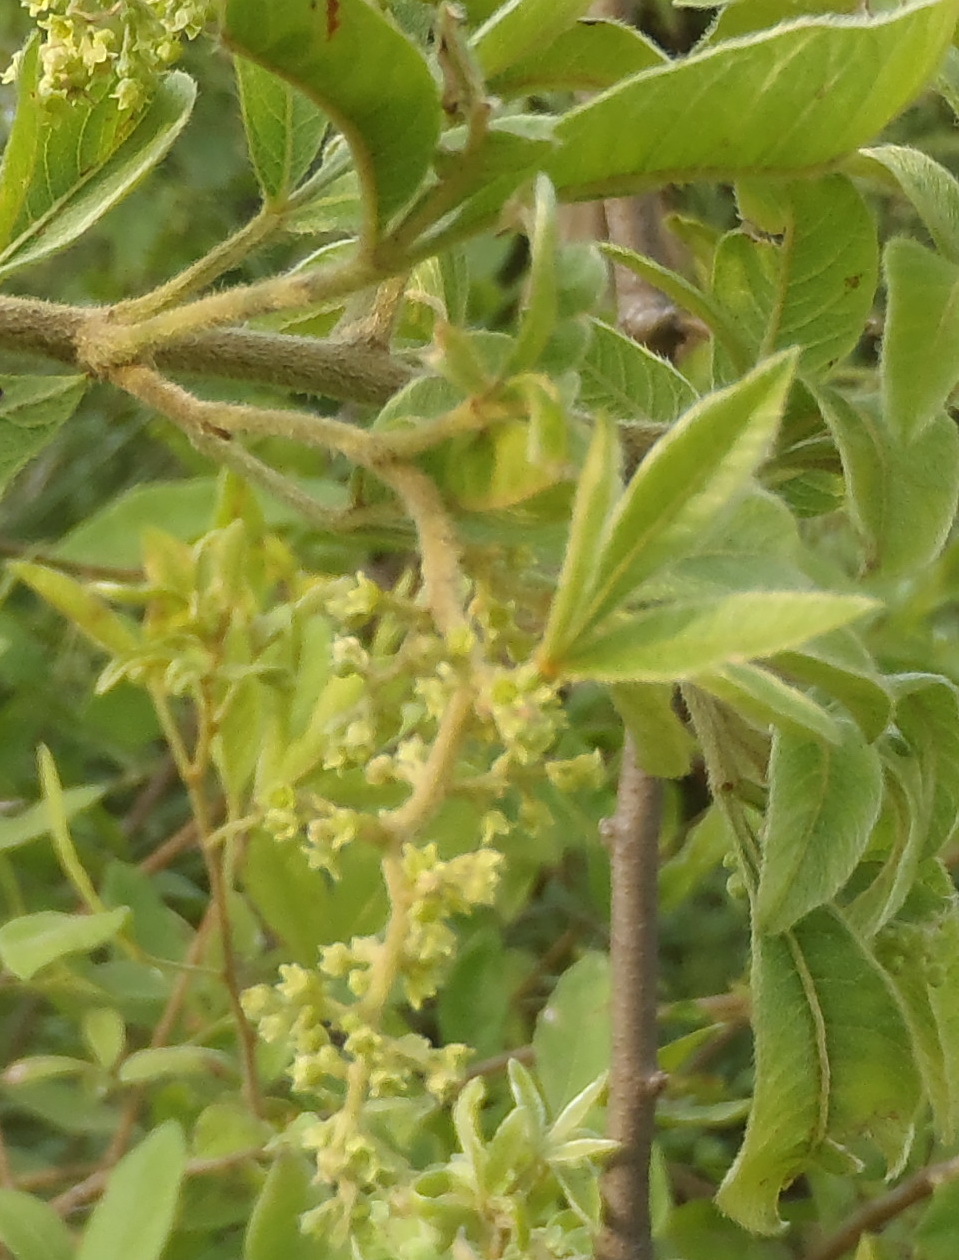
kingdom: Plantae
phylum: Tracheophyta
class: Magnoliopsida
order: Sapindales
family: Anacardiaceae
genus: Searsia
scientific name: Searsia pyroides
